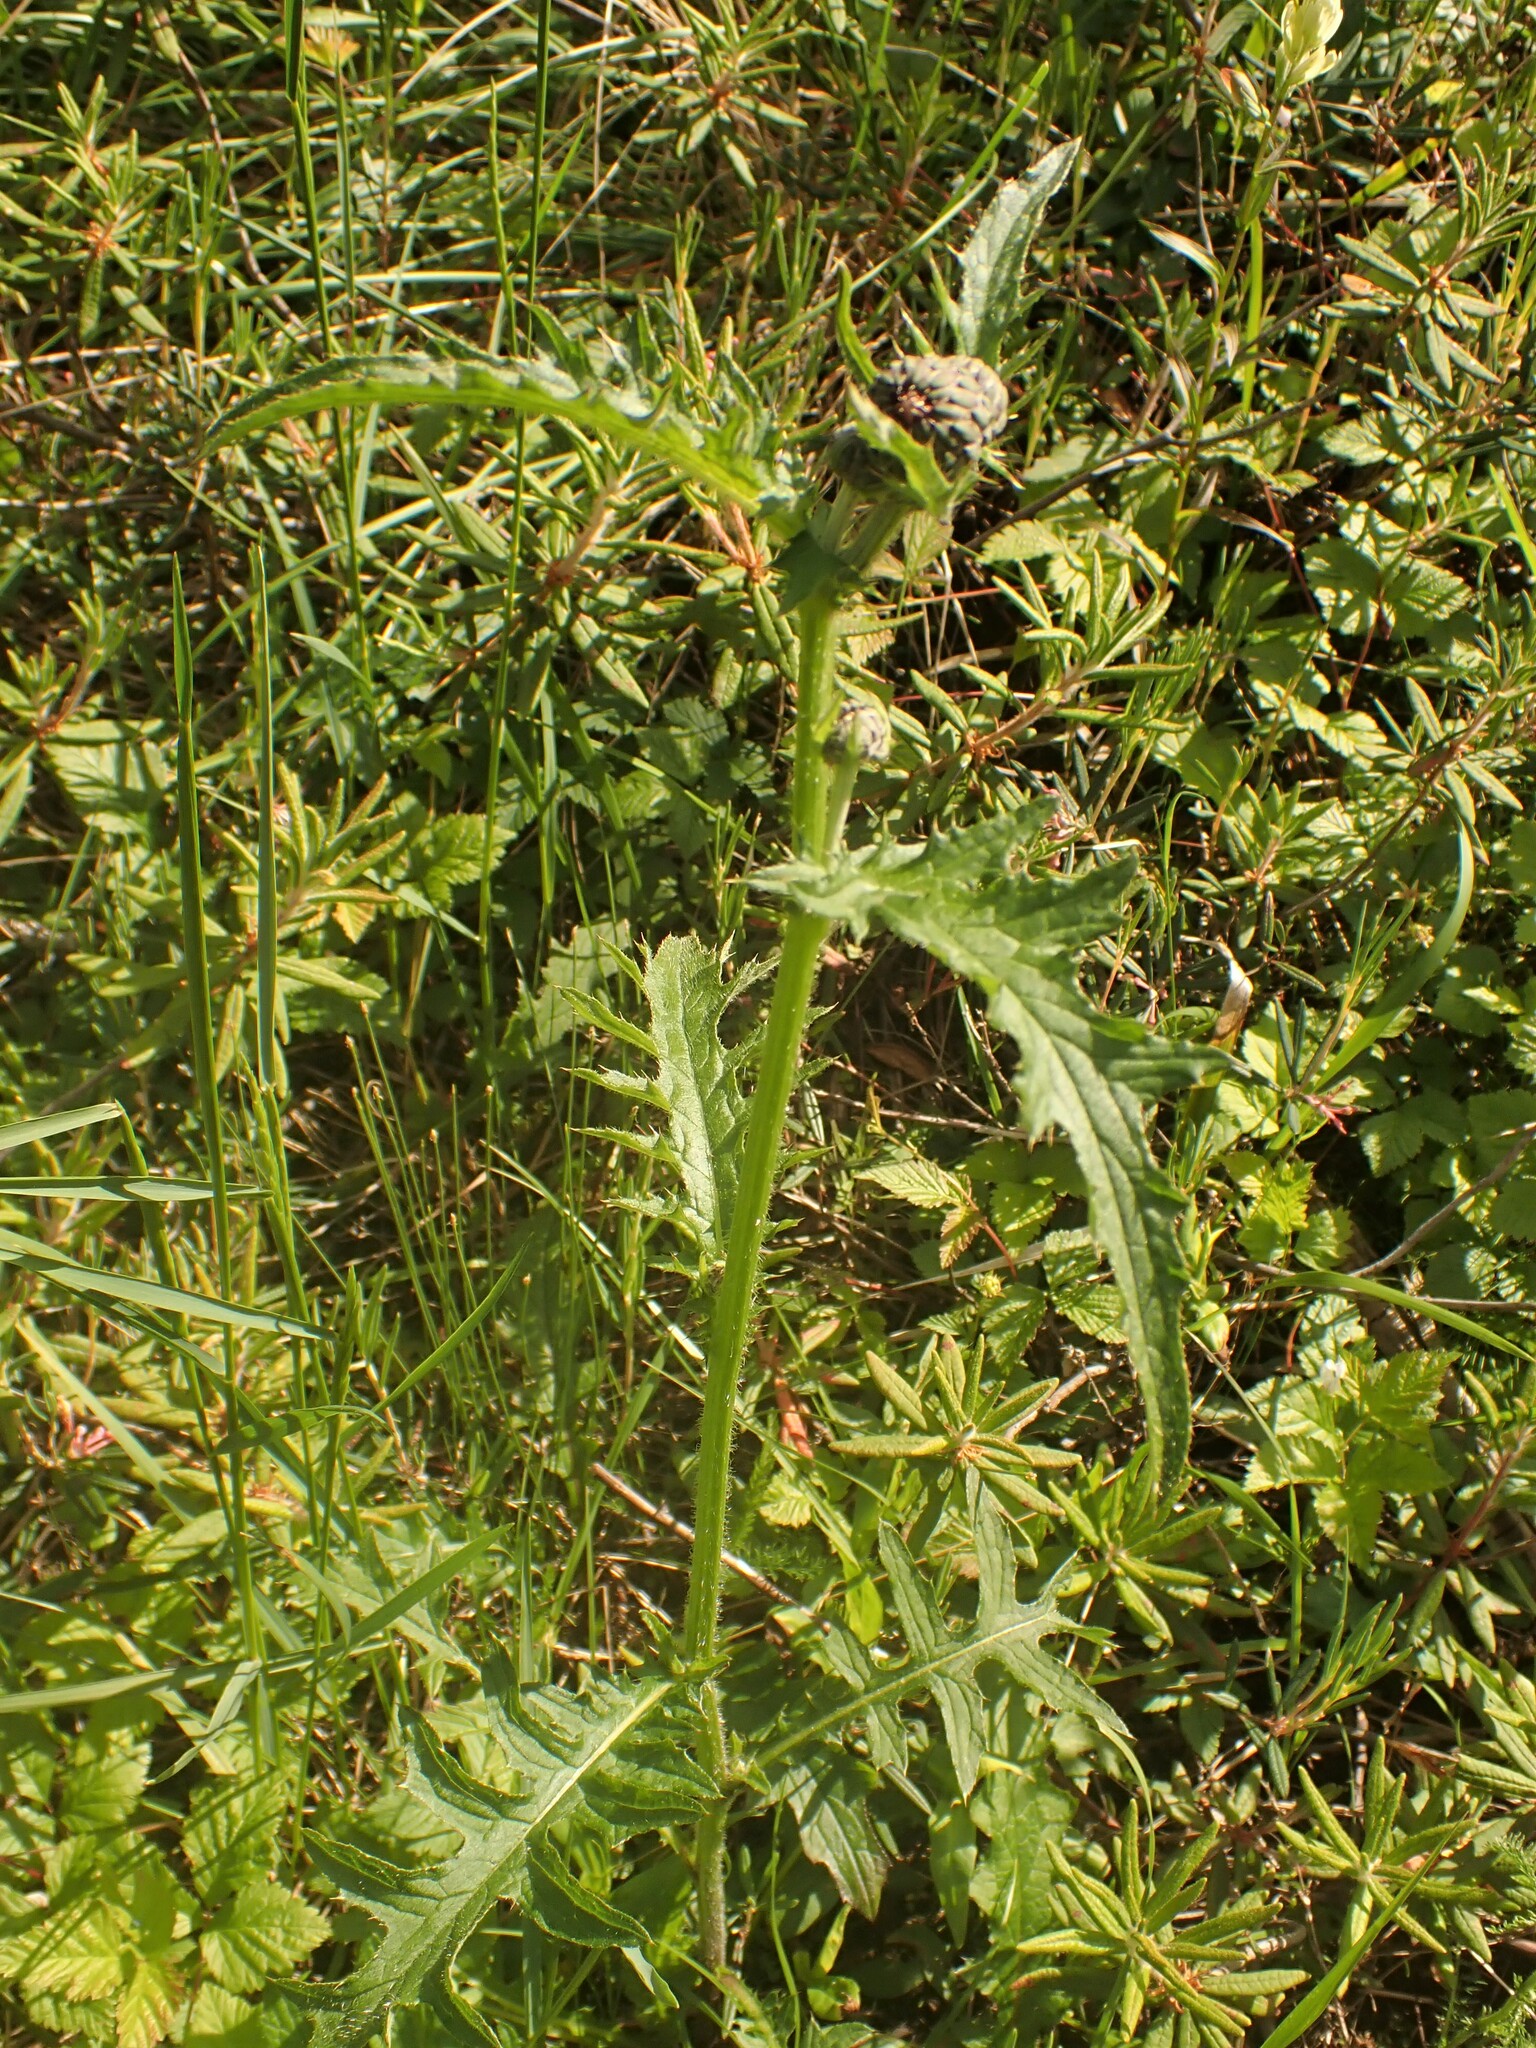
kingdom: Plantae
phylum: Tracheophyta
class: Magnoliopsida
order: Asterales
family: Asteraceae
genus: Cirsium
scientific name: Cirsium muticum
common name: Dunce-nettle
